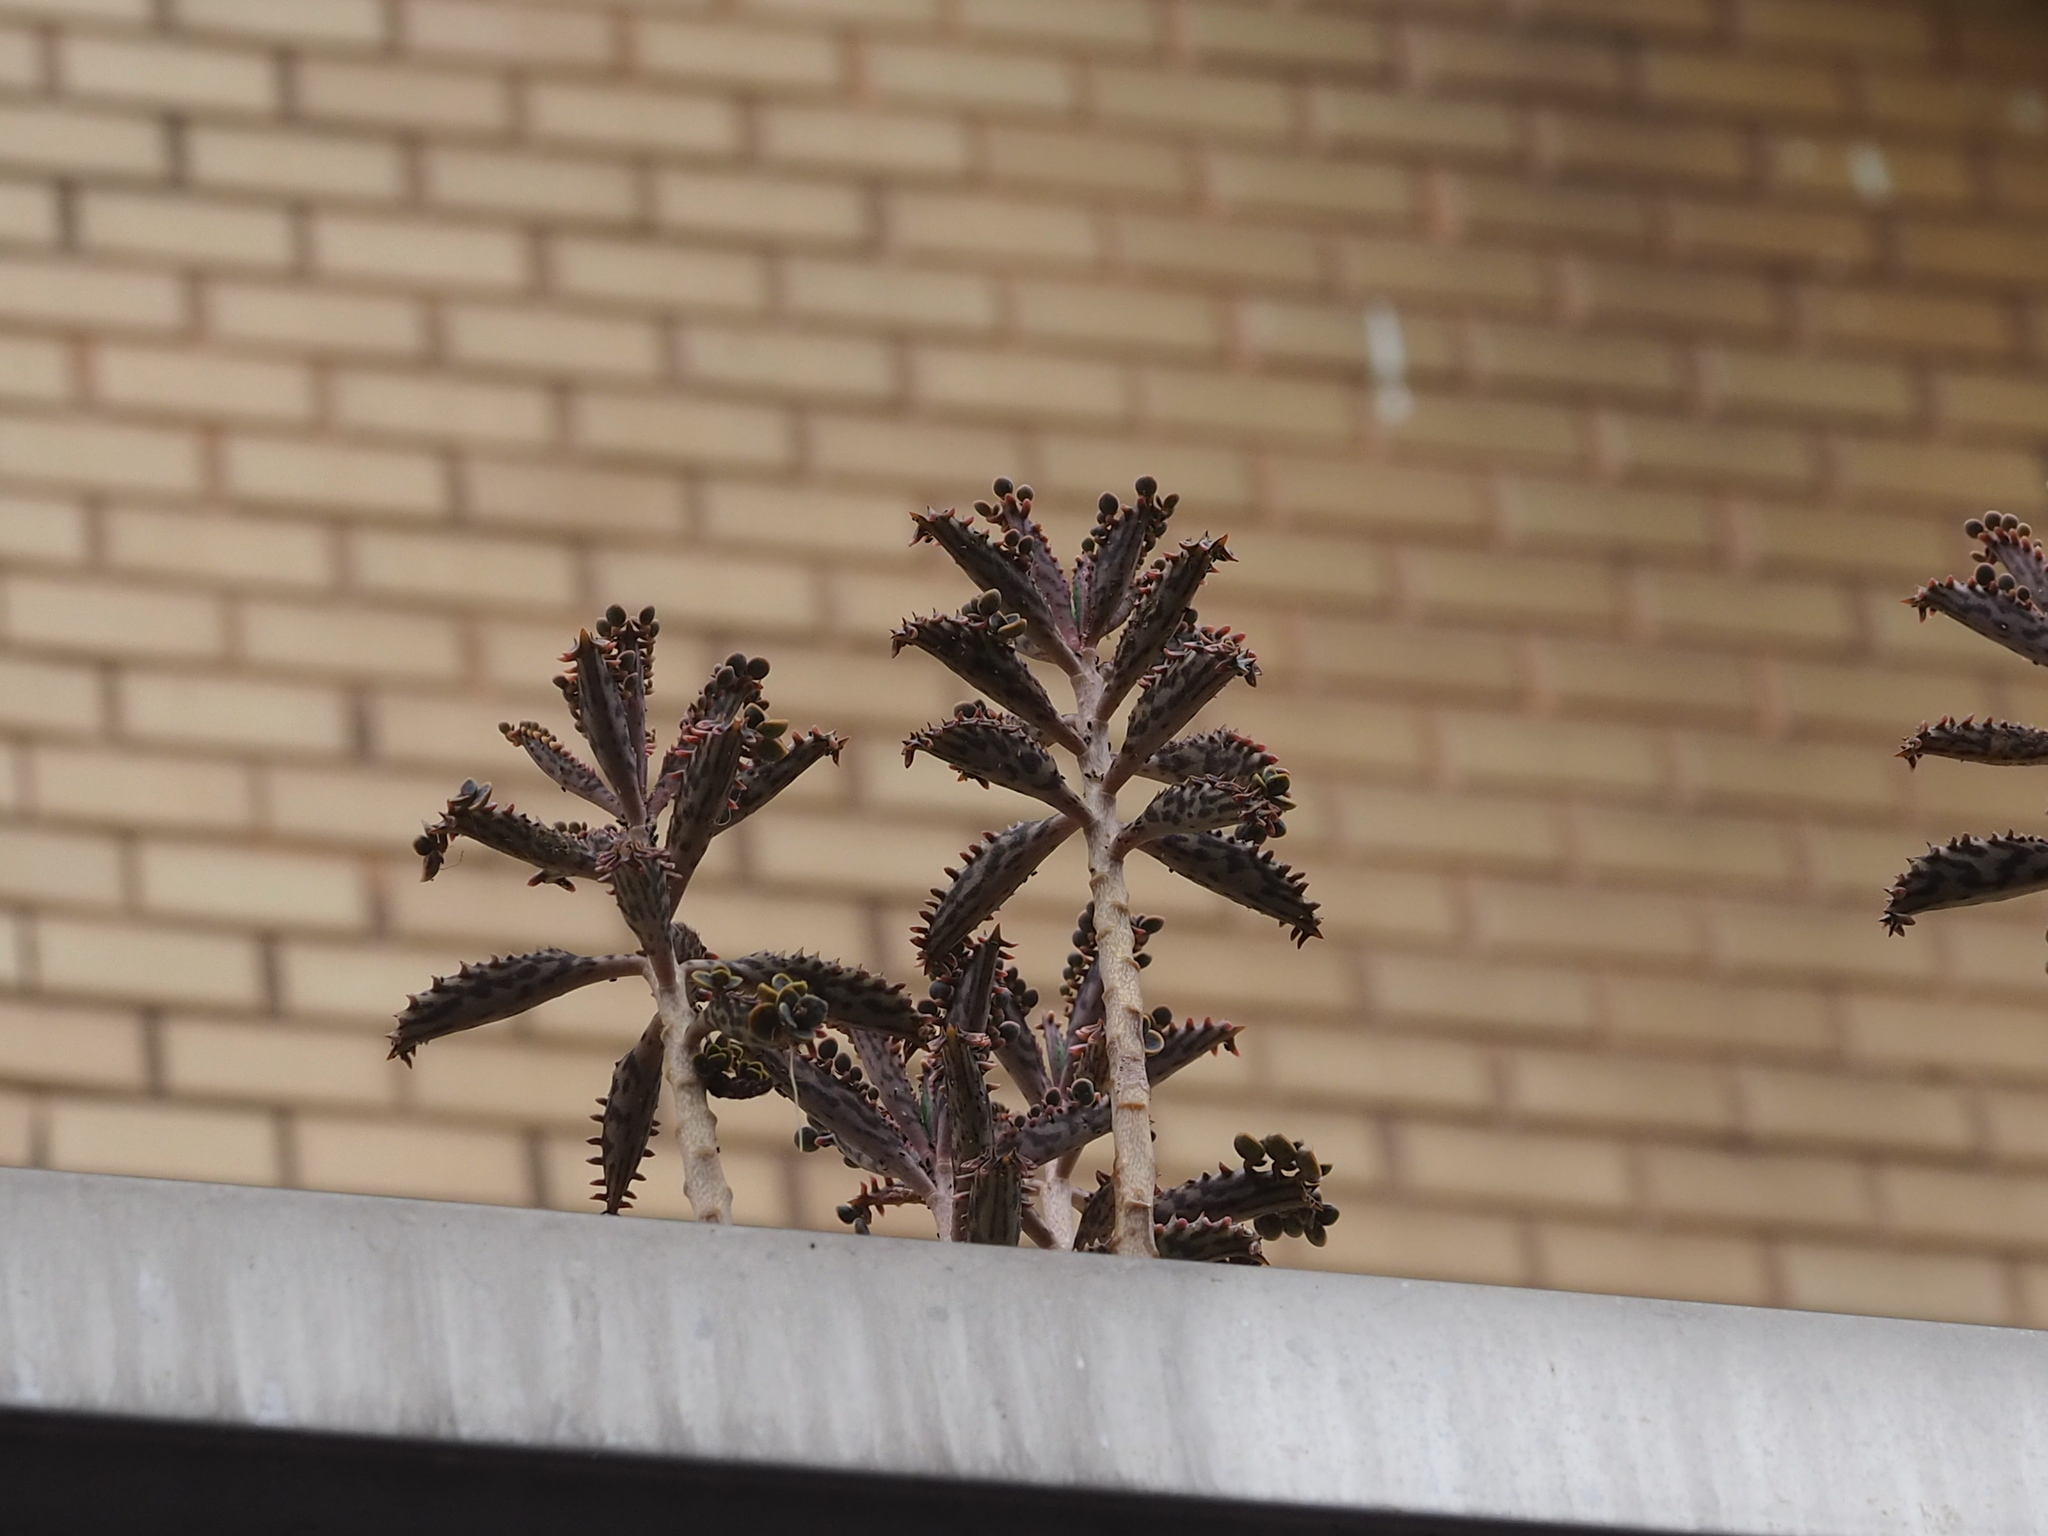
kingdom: Plantae
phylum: Tracheophyta
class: Magnoliopsida
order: Saxifragales
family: Crassulaceae
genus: Kalanchoe
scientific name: Kalanchoe houghtonii
